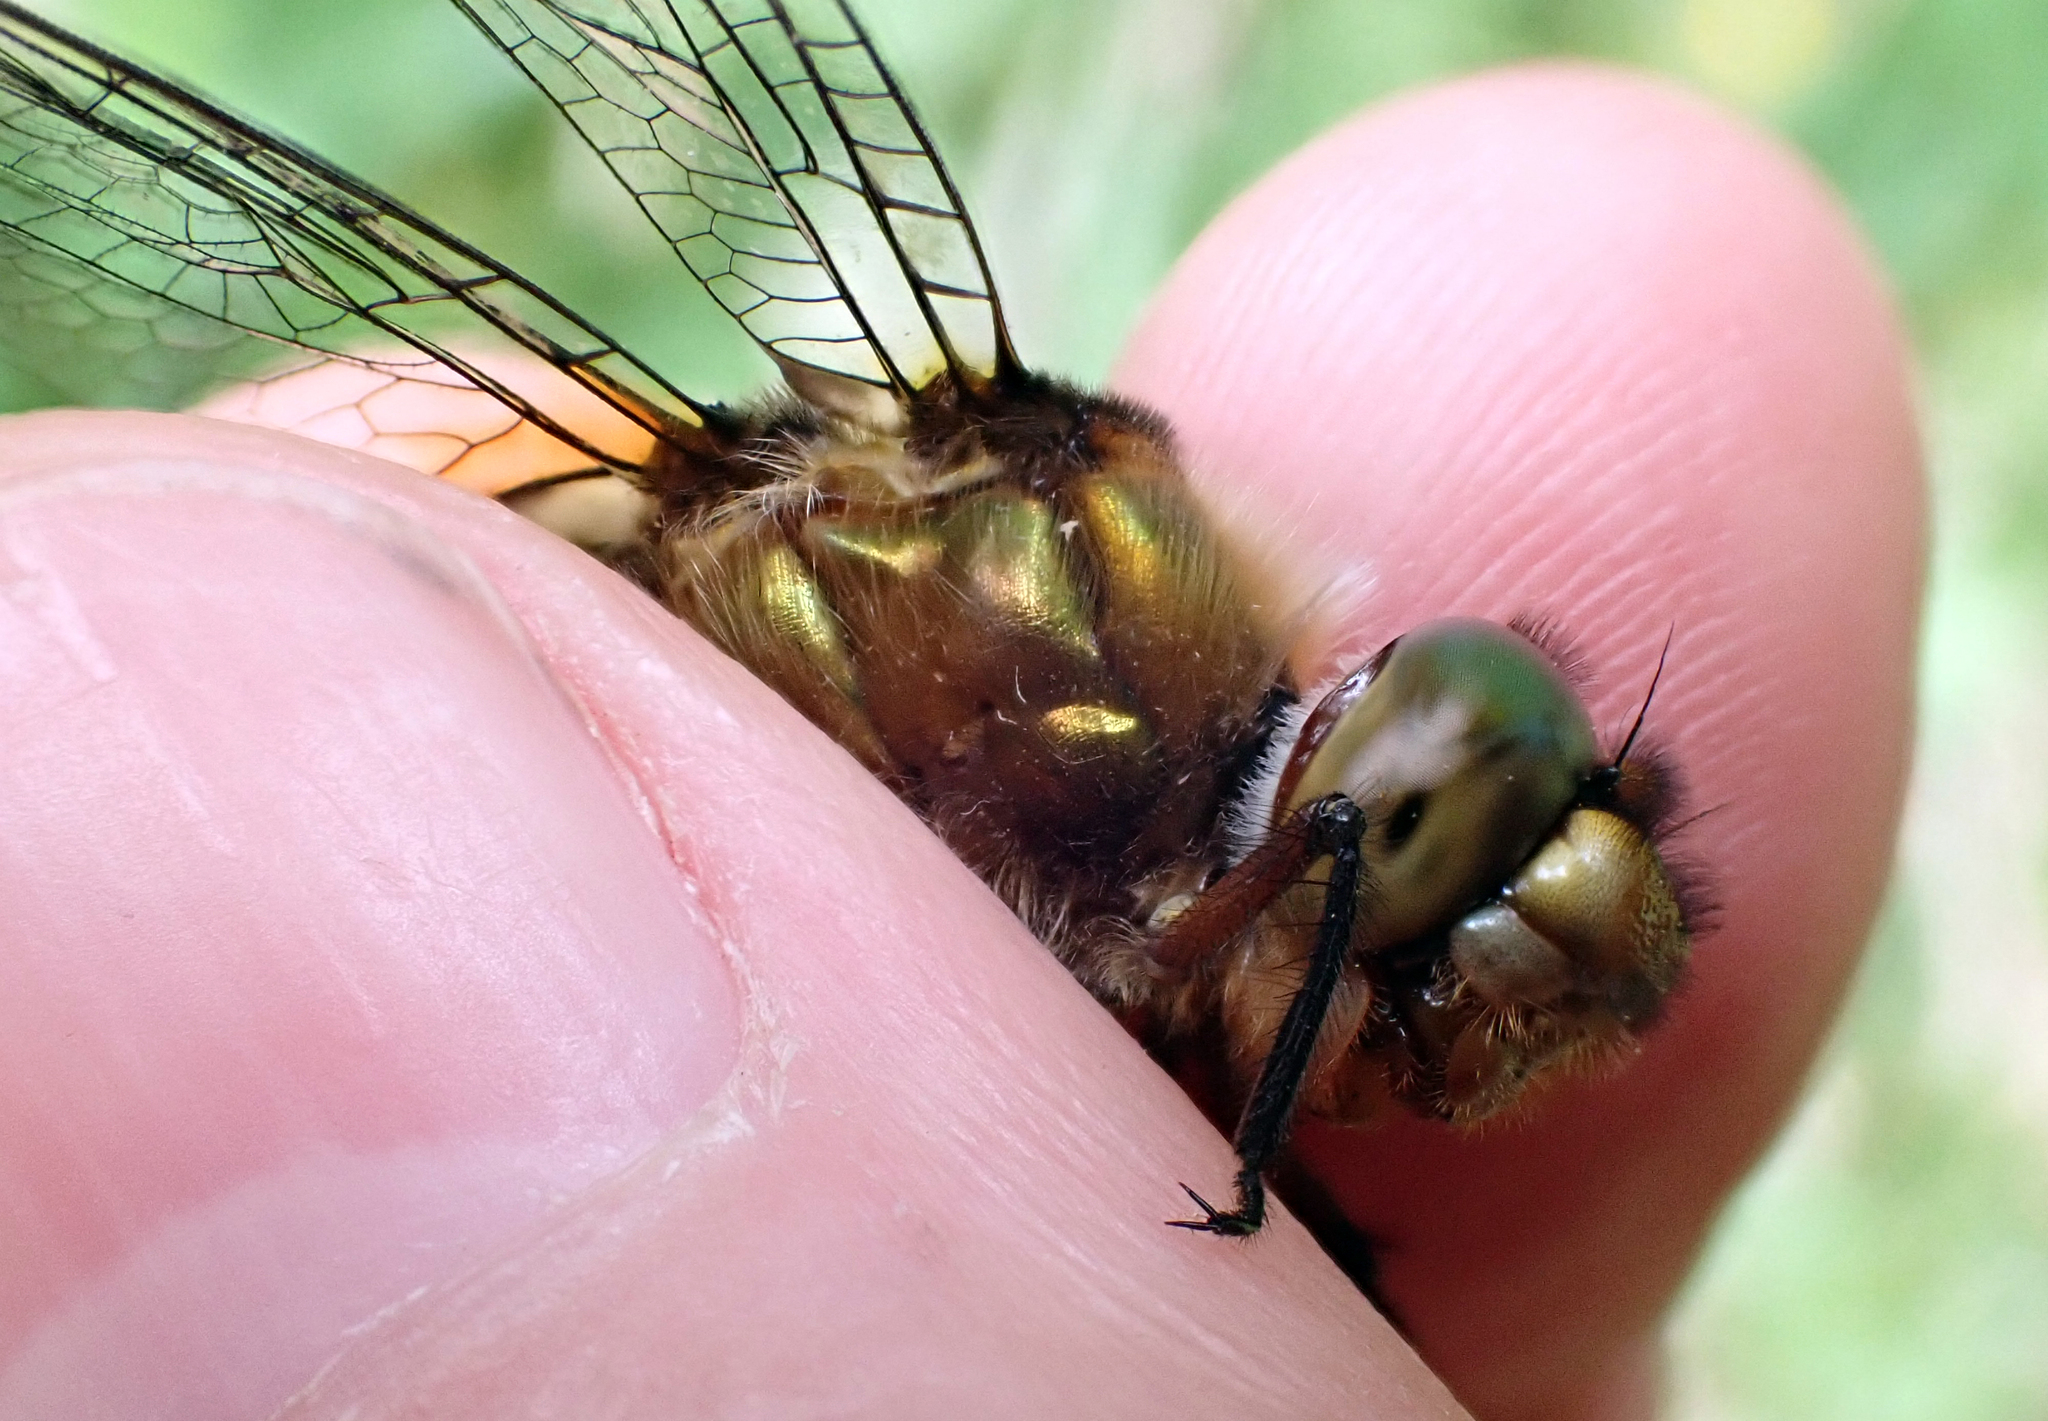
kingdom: Animalia
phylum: Arthropoda
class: Insecta
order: Odonata
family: Corduliidae
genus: Procordulia
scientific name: Procordulia smithii
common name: Ranger dragonfly
